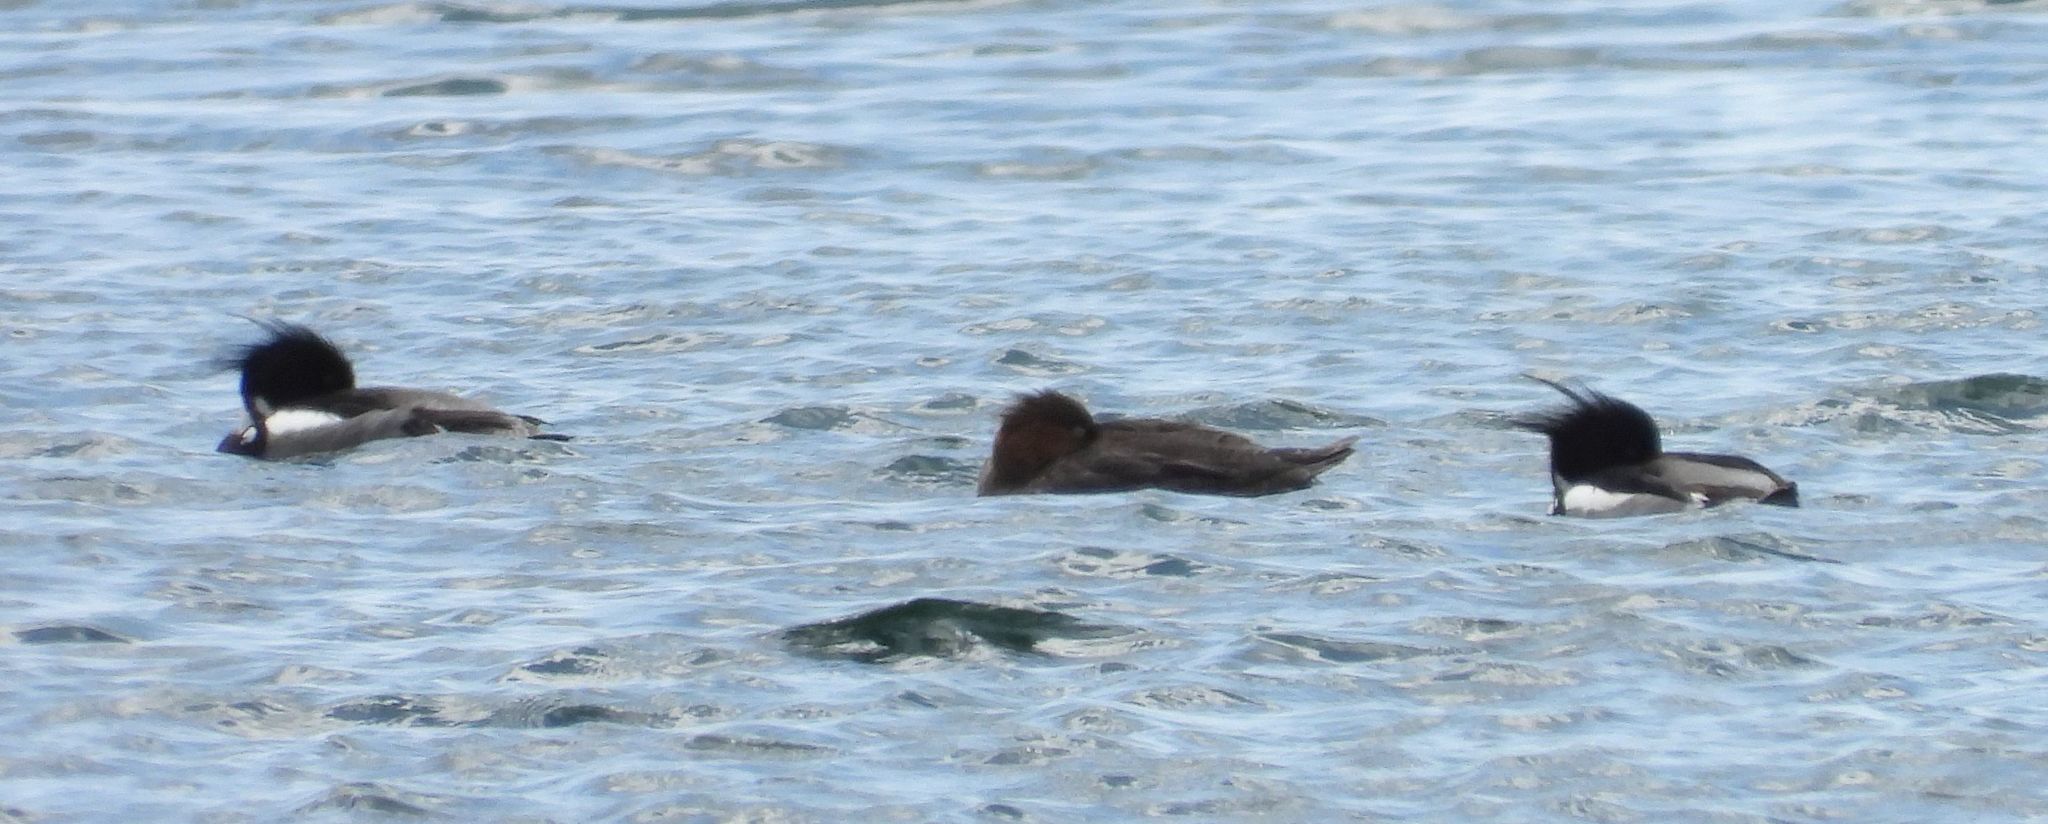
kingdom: Animalia
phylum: Chordata
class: Aves
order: Anseriformes
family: Anatidae
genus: Mergus
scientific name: Mergus serrator
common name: Red-breasted merganser
